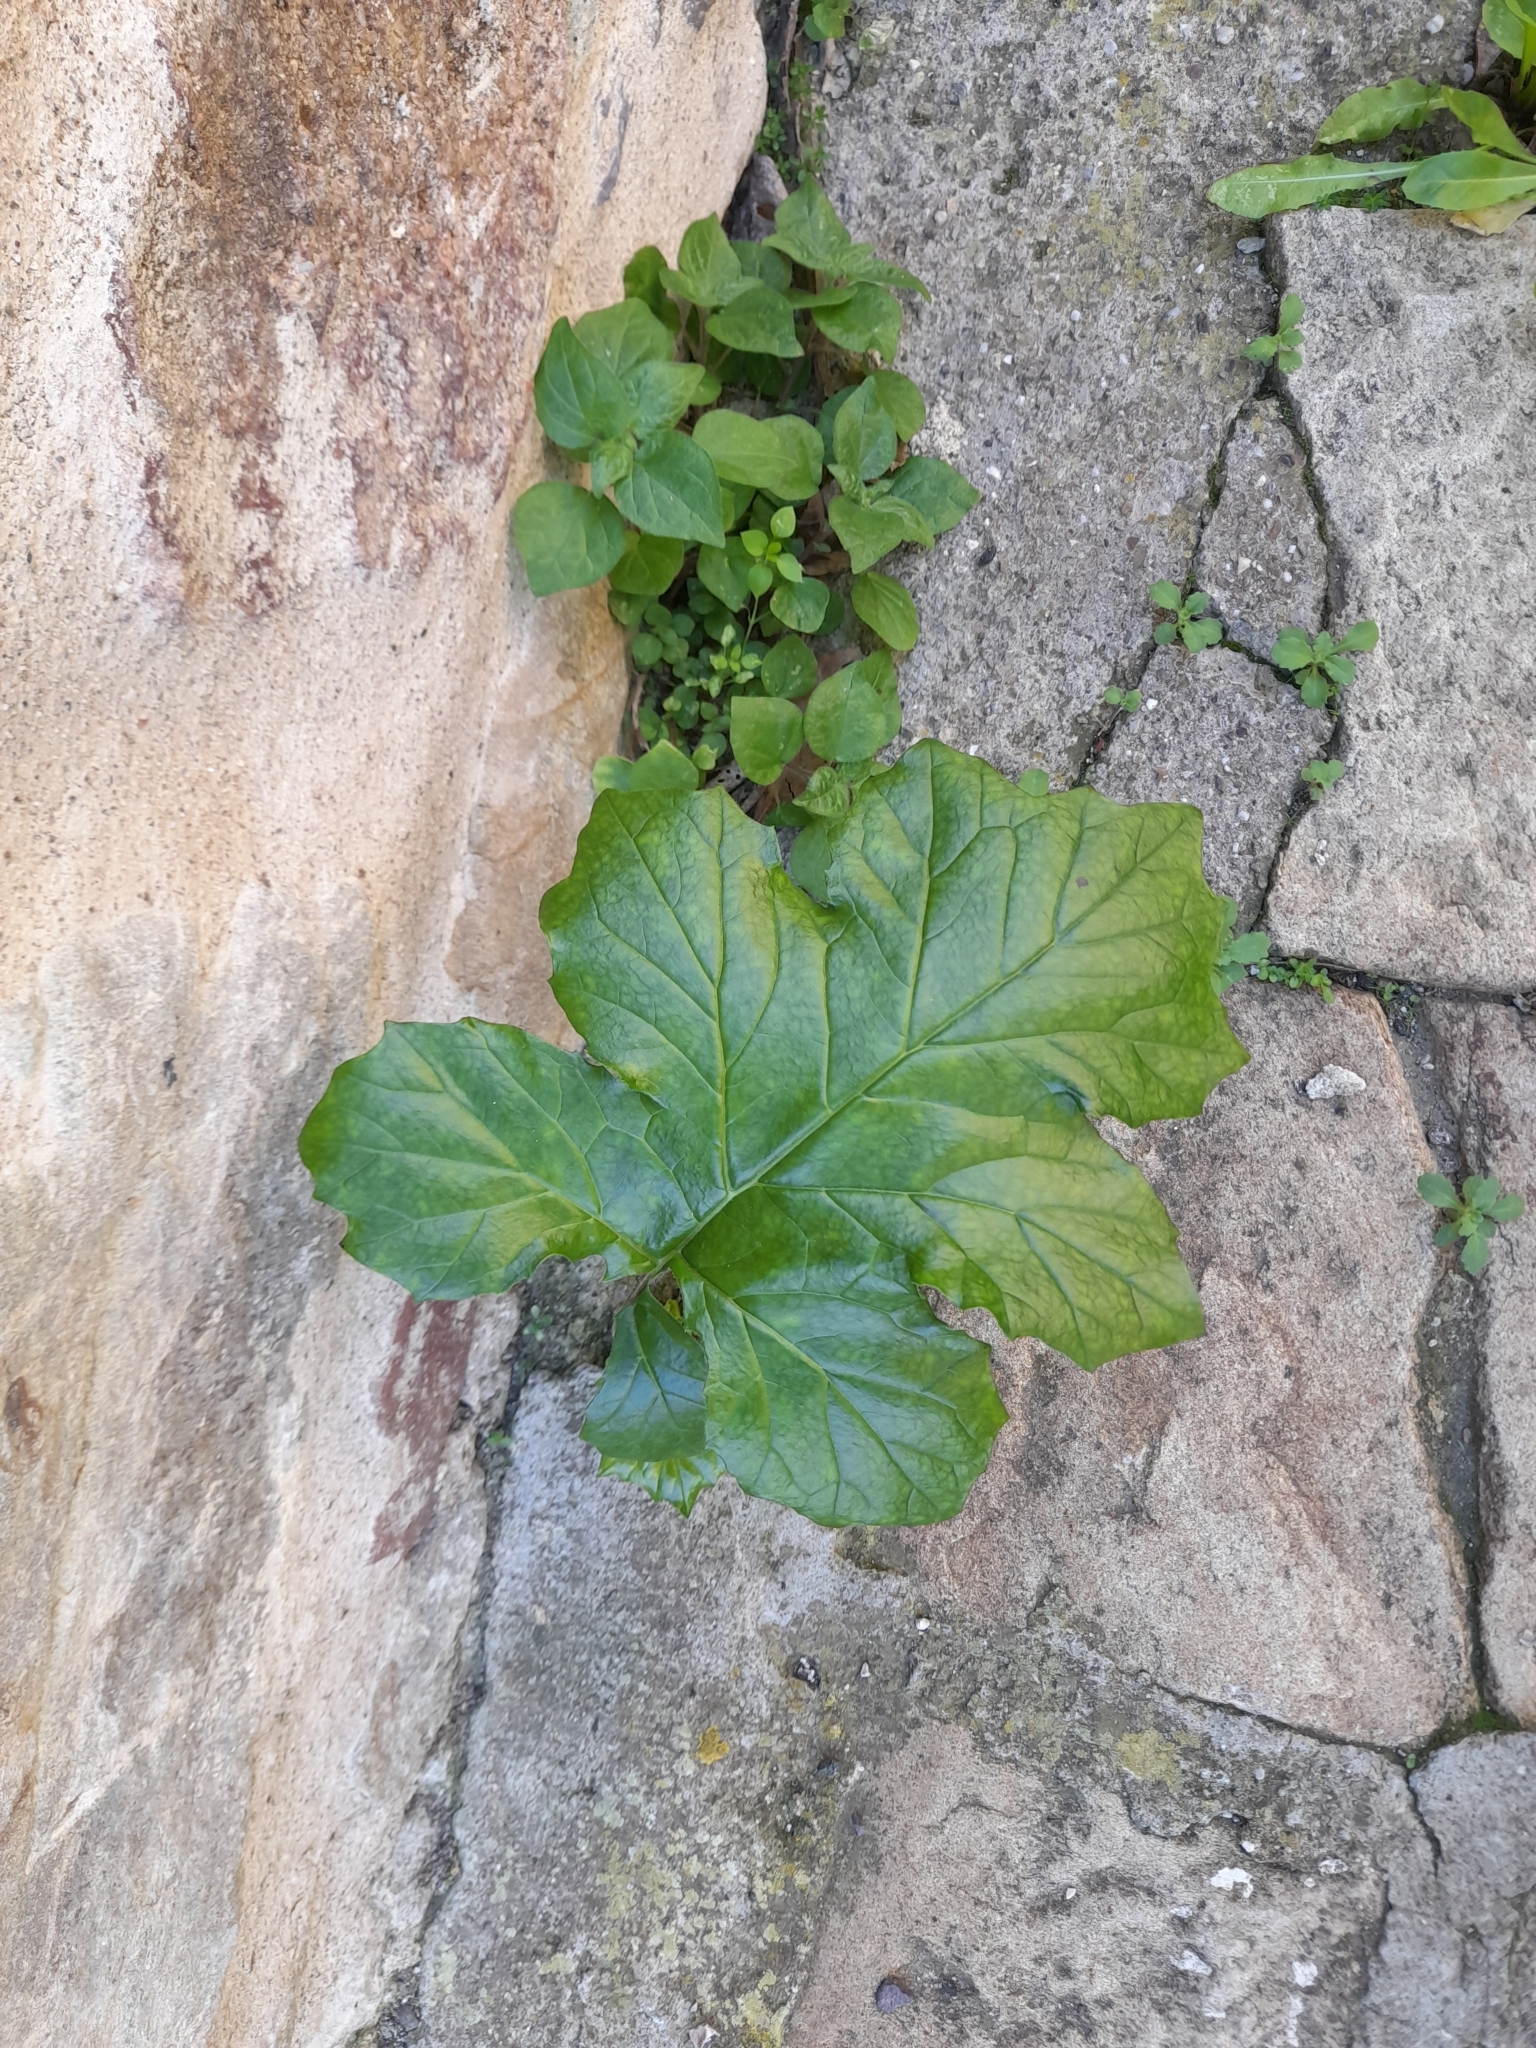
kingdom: Plantae
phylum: Tracheophyta
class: Magnoliopsida
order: Lamiales
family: Acanthaceae
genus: Acanthus
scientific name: Acanthus mollis
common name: Bear's-breech
